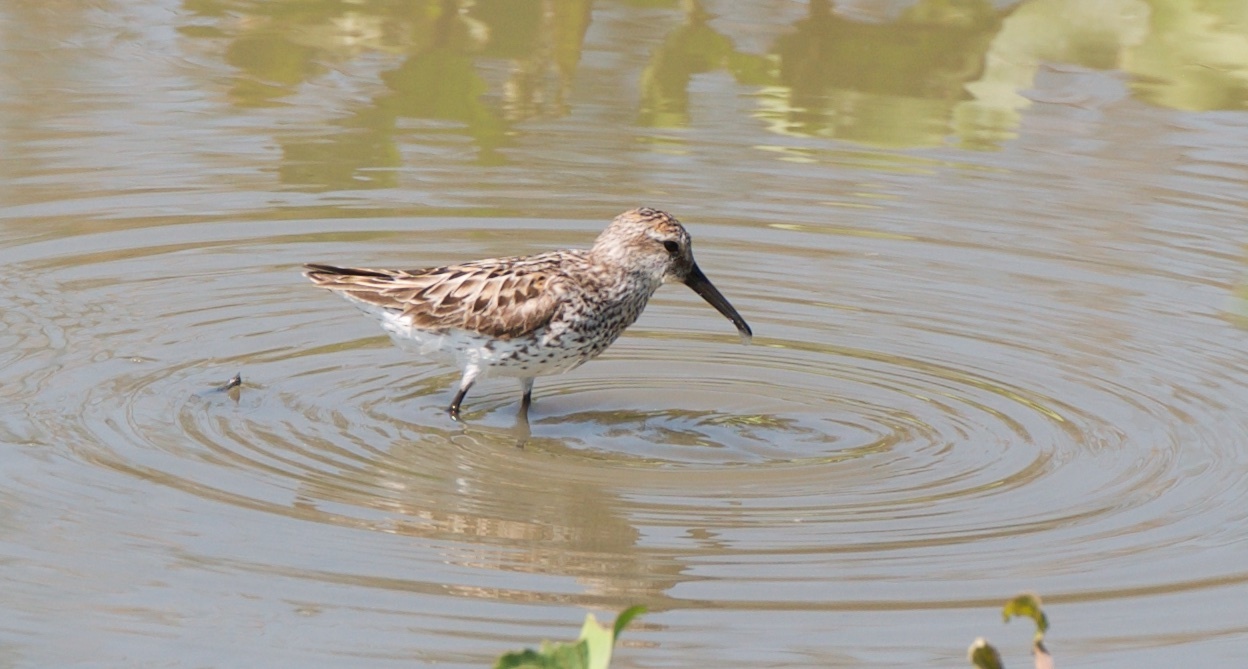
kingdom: Animalia
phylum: Chordata
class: Aves
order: Charadriiformes
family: Scolopacidae
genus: Calidris
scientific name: Calidris mauri
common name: Western sandpiper
